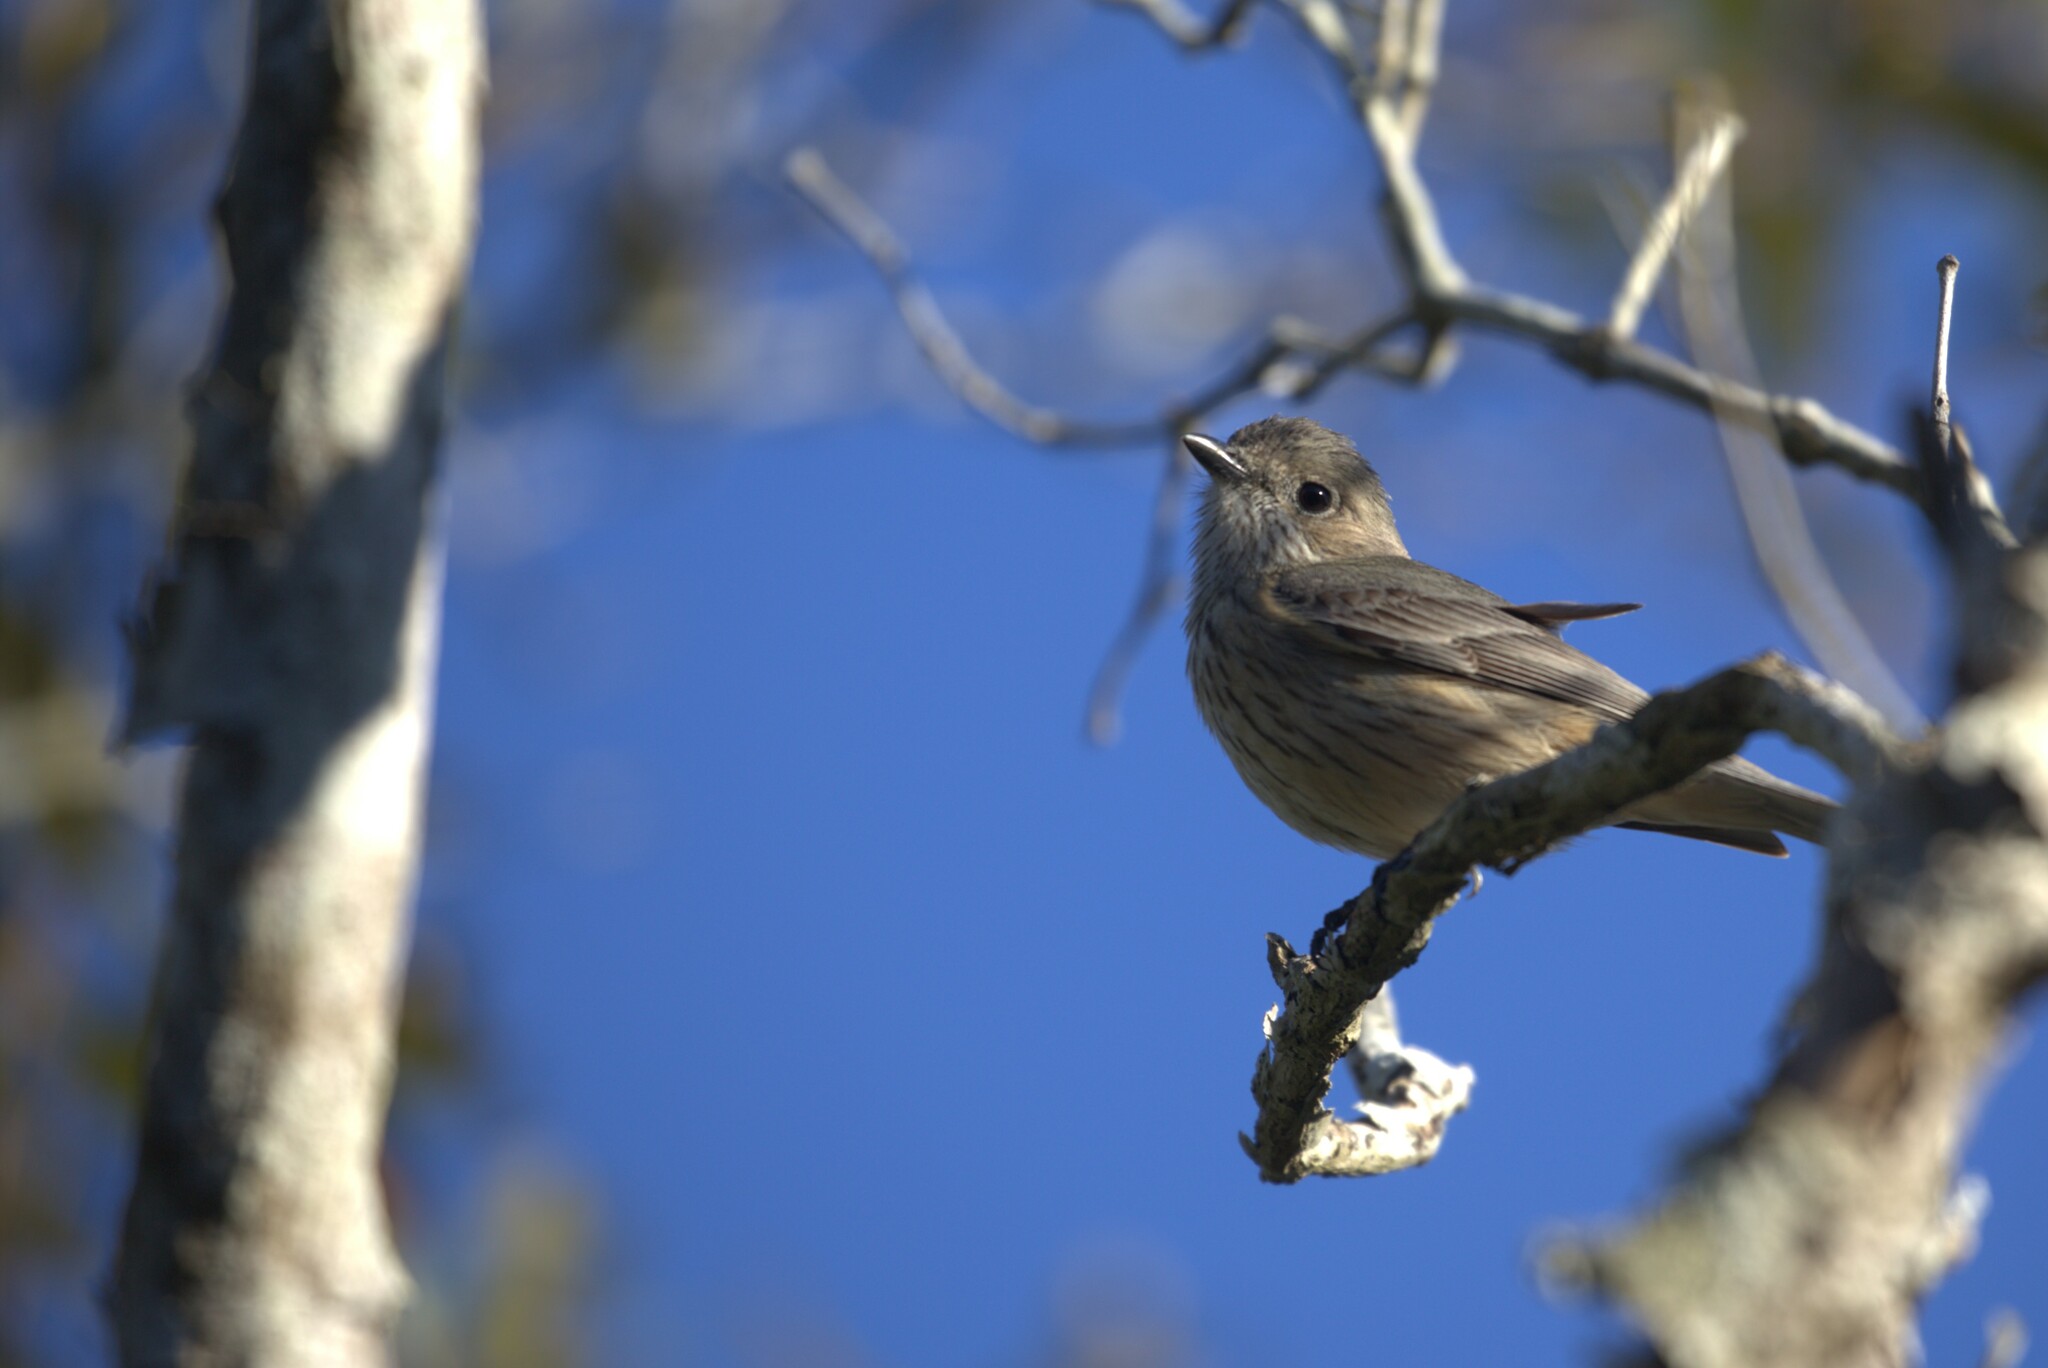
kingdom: Animalia
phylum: Chordata
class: Aves
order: Passeriformes
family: Pachycephalidae
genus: Pachycephala
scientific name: Pachycephala rufiventris
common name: Rufous whistler
